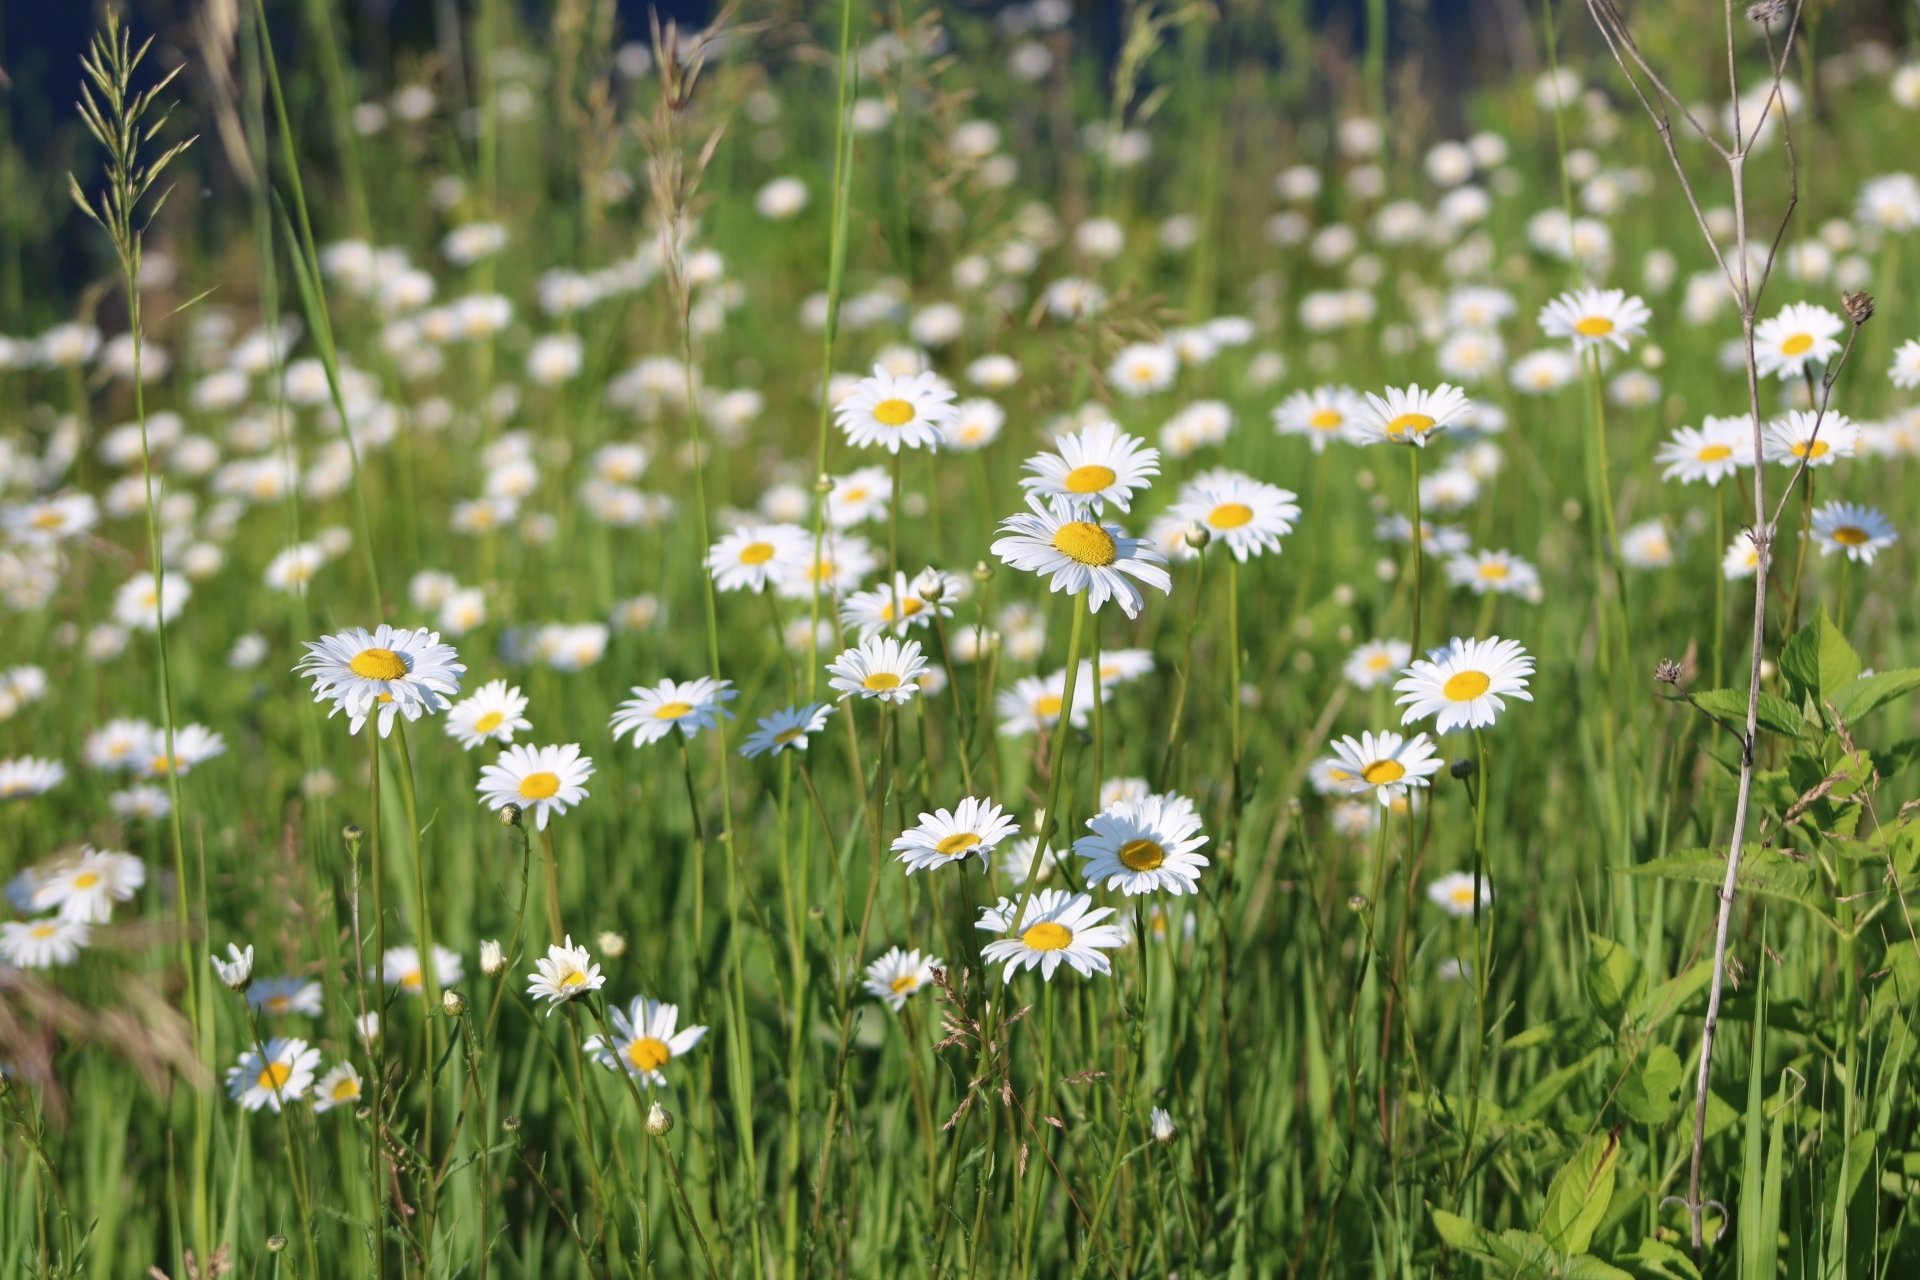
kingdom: Plantae
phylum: Tracheophyta
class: Magnoliopsida
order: Asterales
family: Asteraceae
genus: Leucanthemum
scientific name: Leucanthemum vulgare
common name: Oxeye daisy
